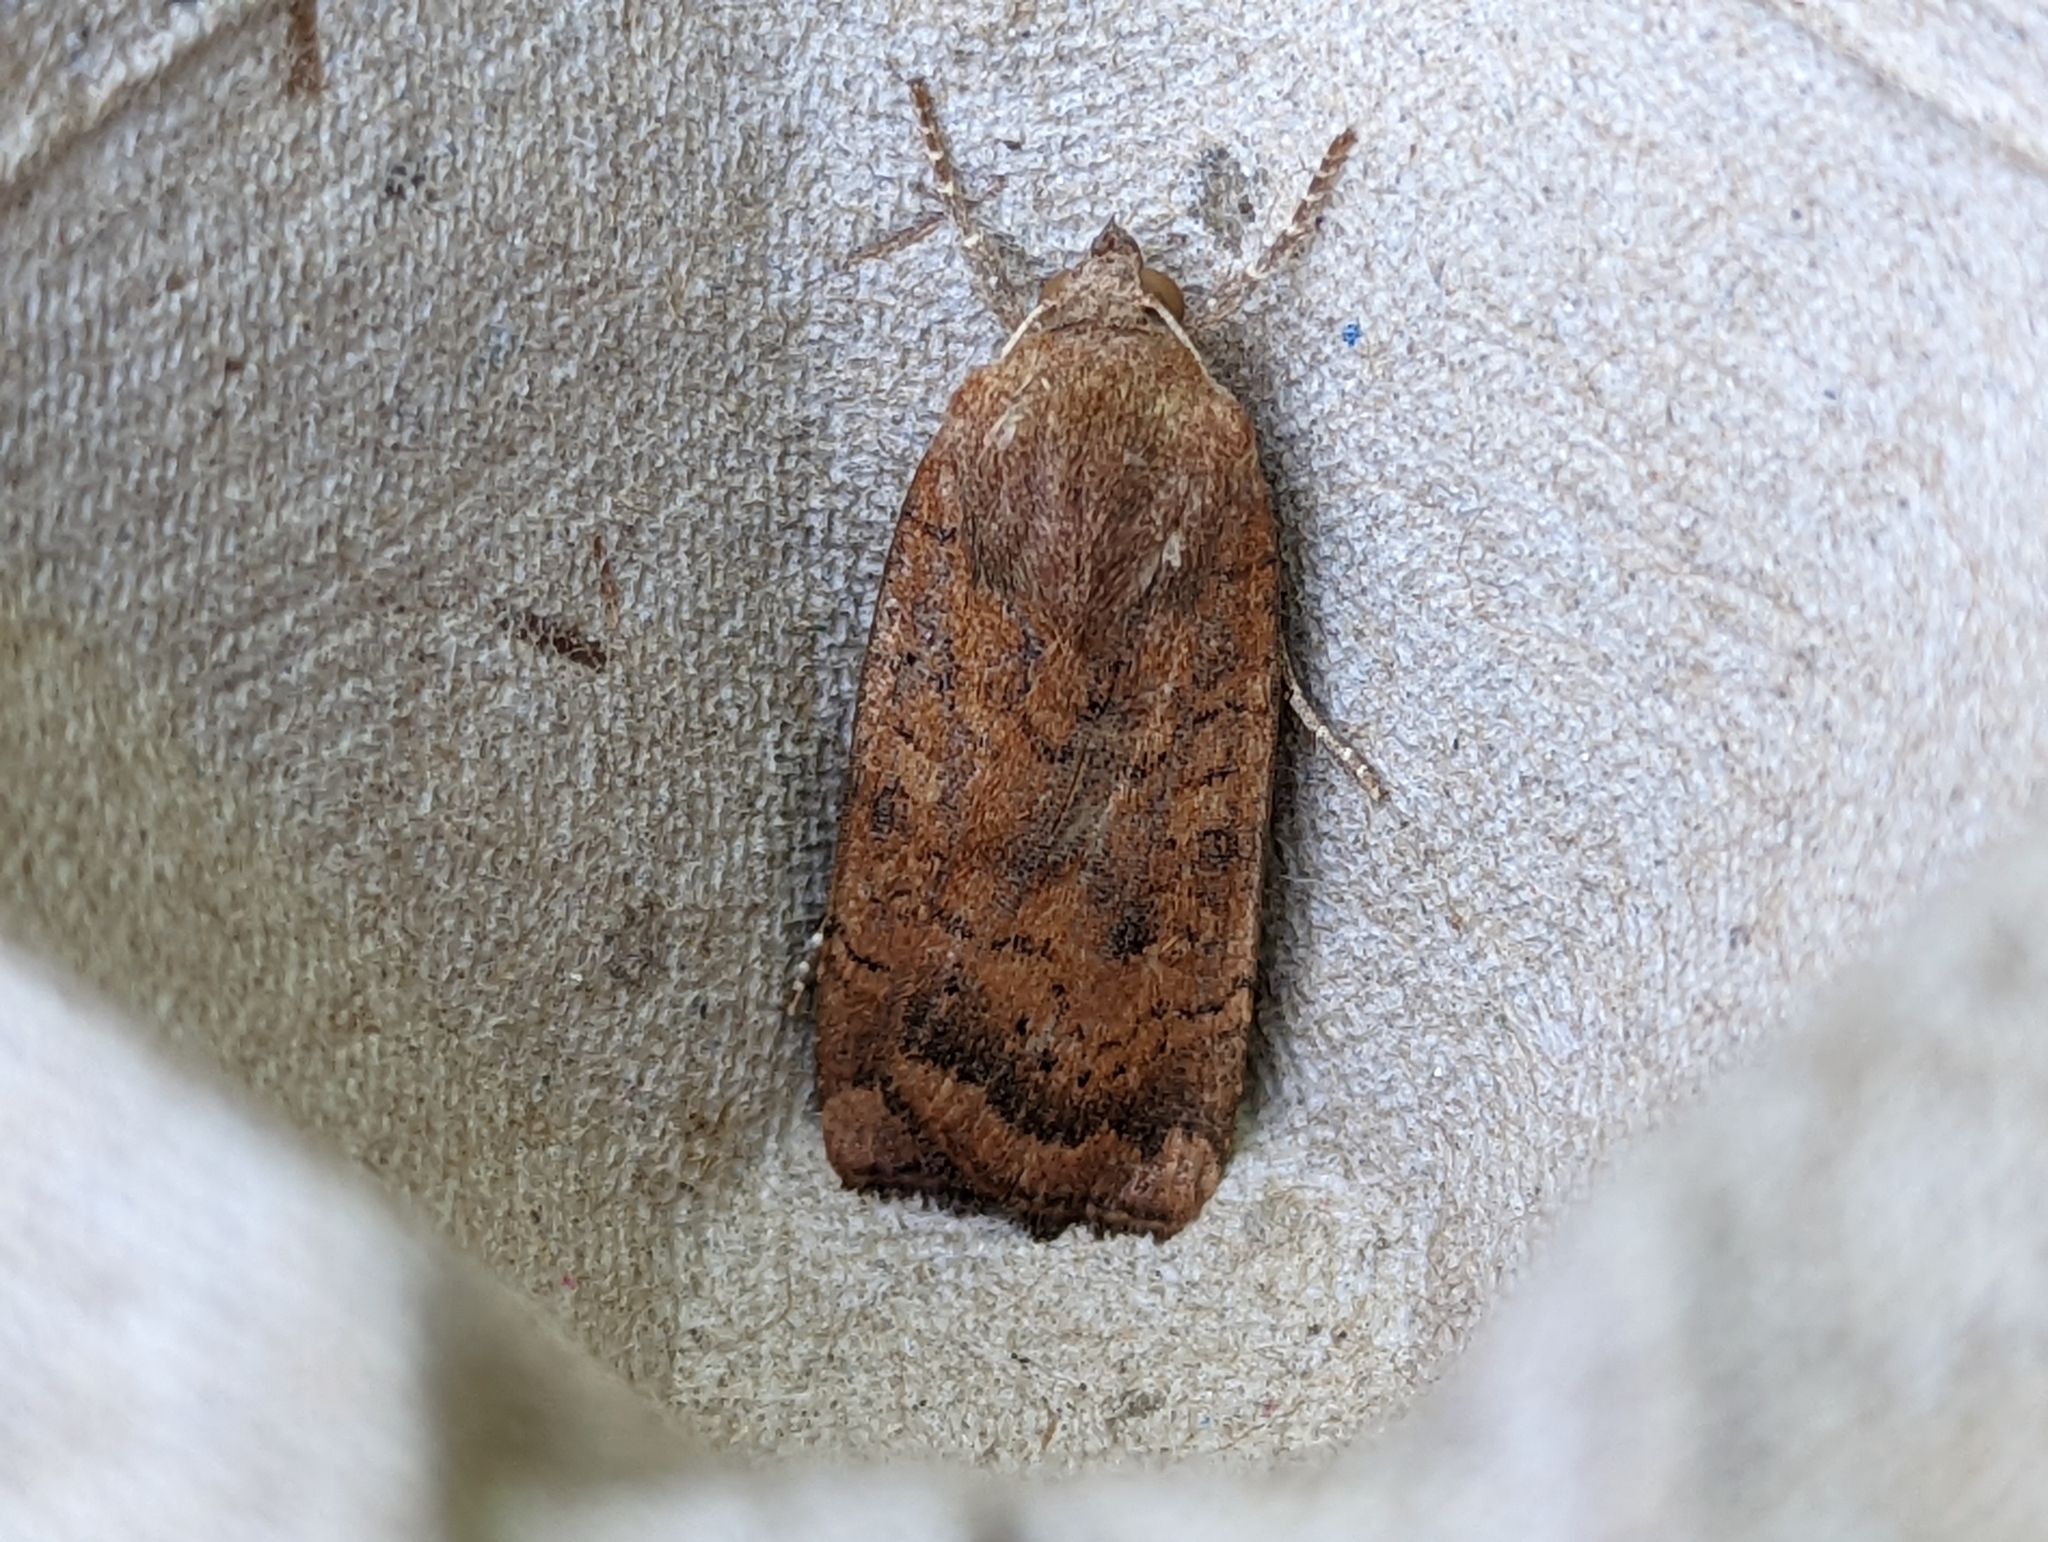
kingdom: Animalia
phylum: Arthropoda
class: Insecta
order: Lepidoptera
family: Noctuidae
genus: Noctua
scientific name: Noctua interjecta
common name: Least yellow underwing
